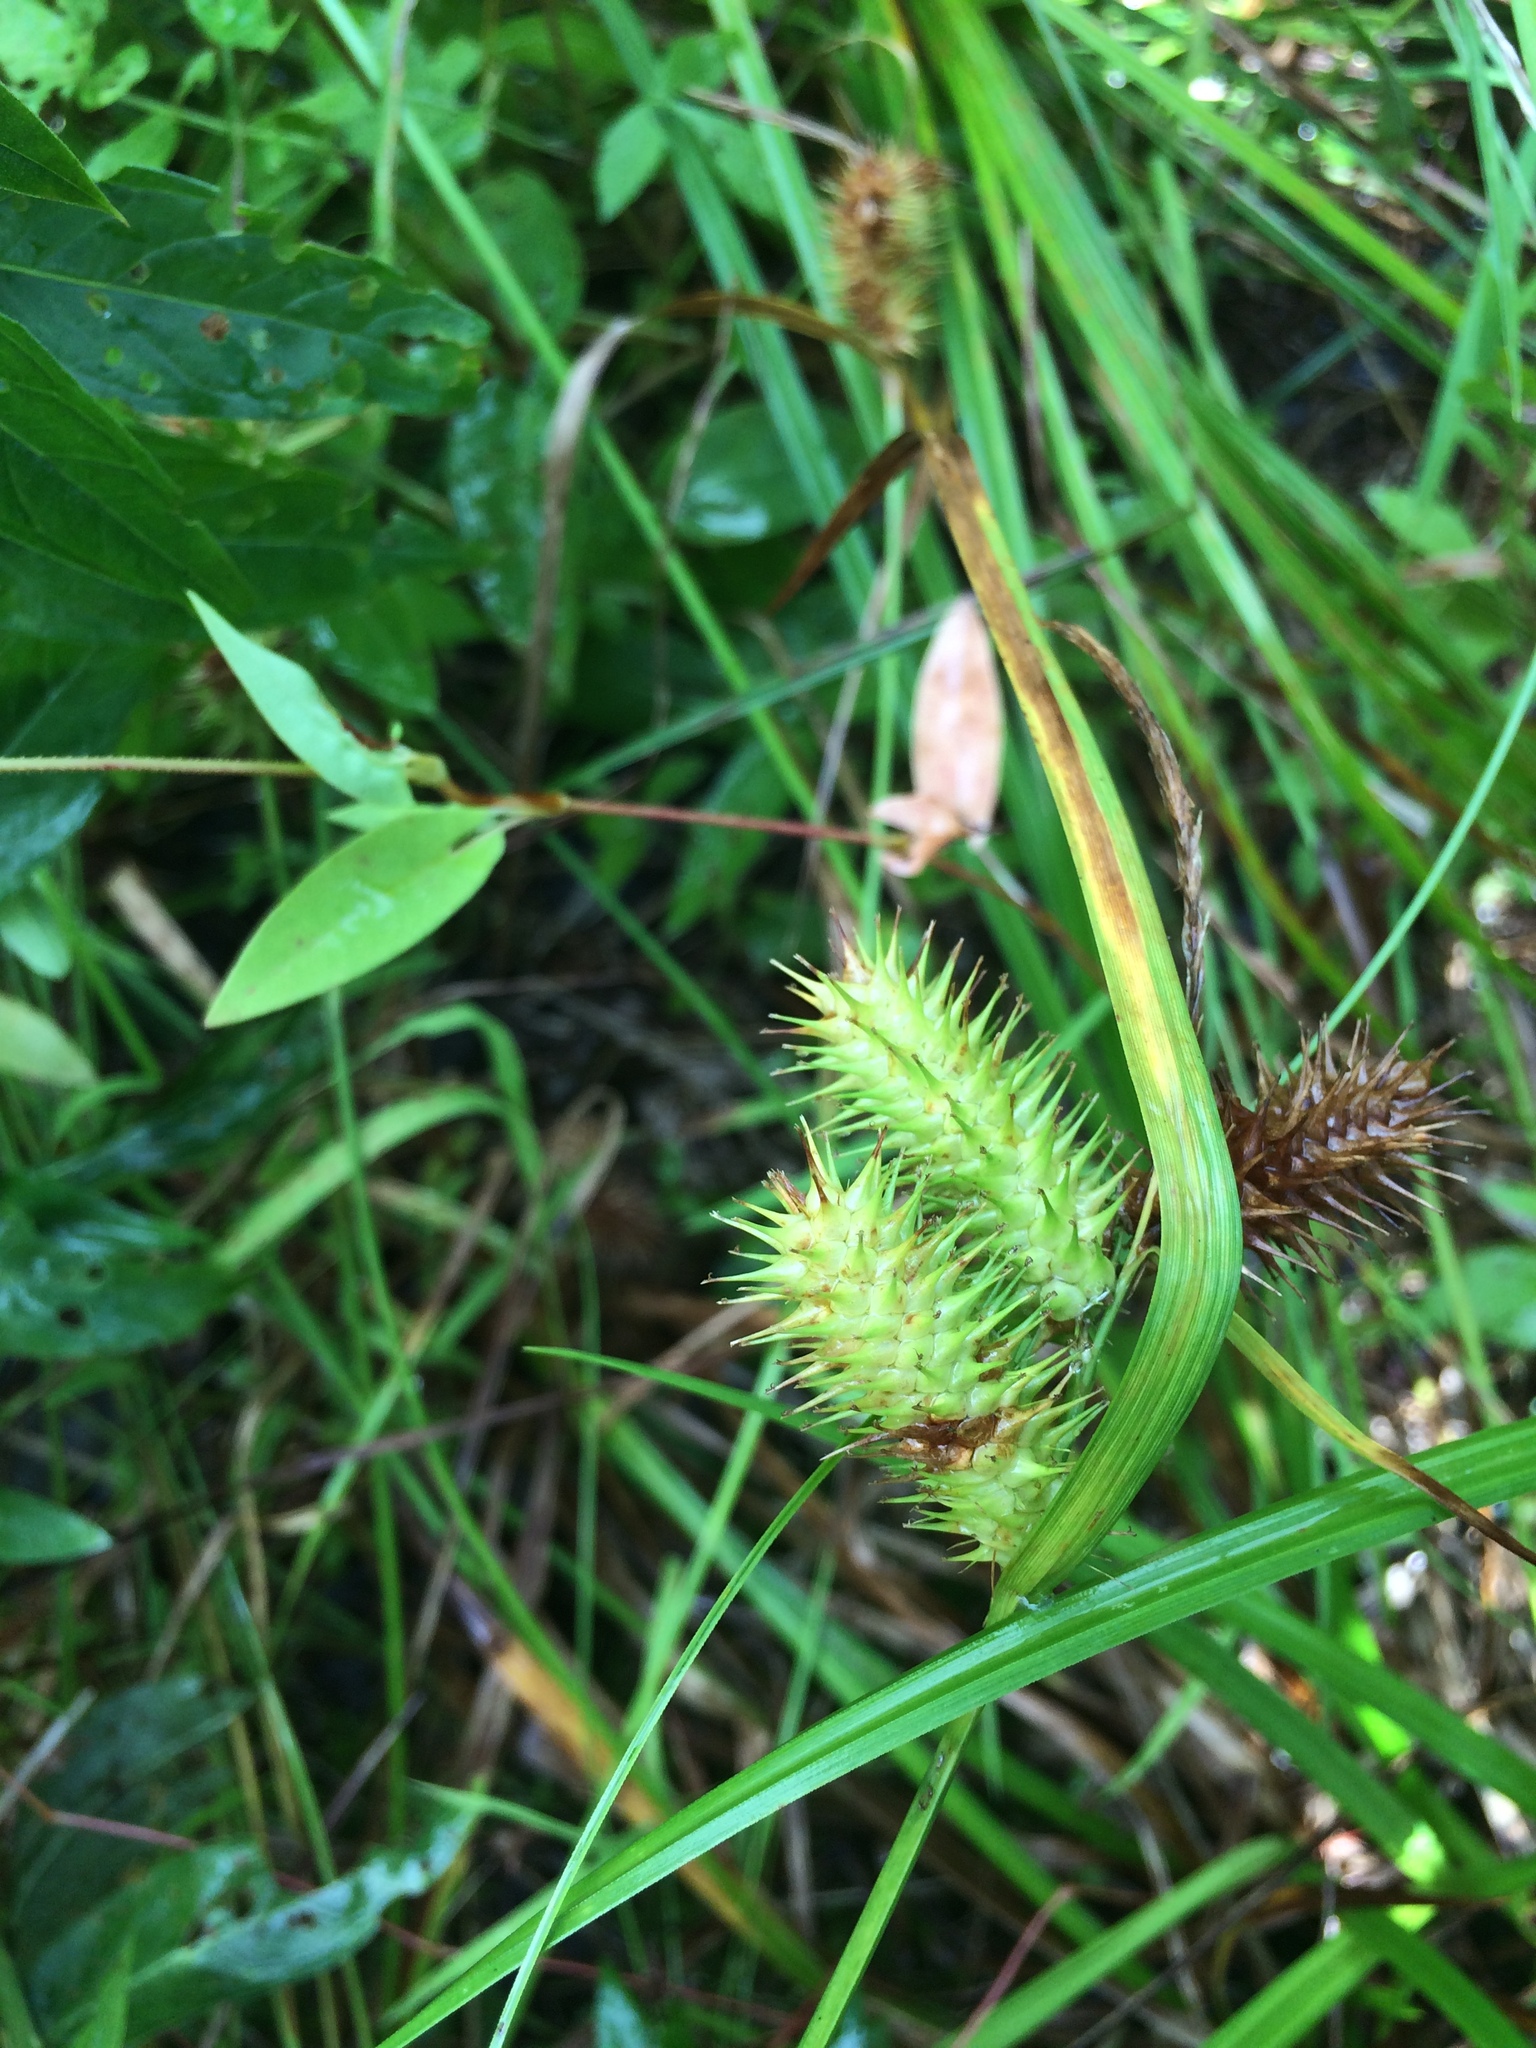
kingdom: Plantae
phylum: Tracheophyta
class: Liliopsida
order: Poales
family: Cyperaceae
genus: Carex
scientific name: Carex lurida
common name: Sallow sedge
